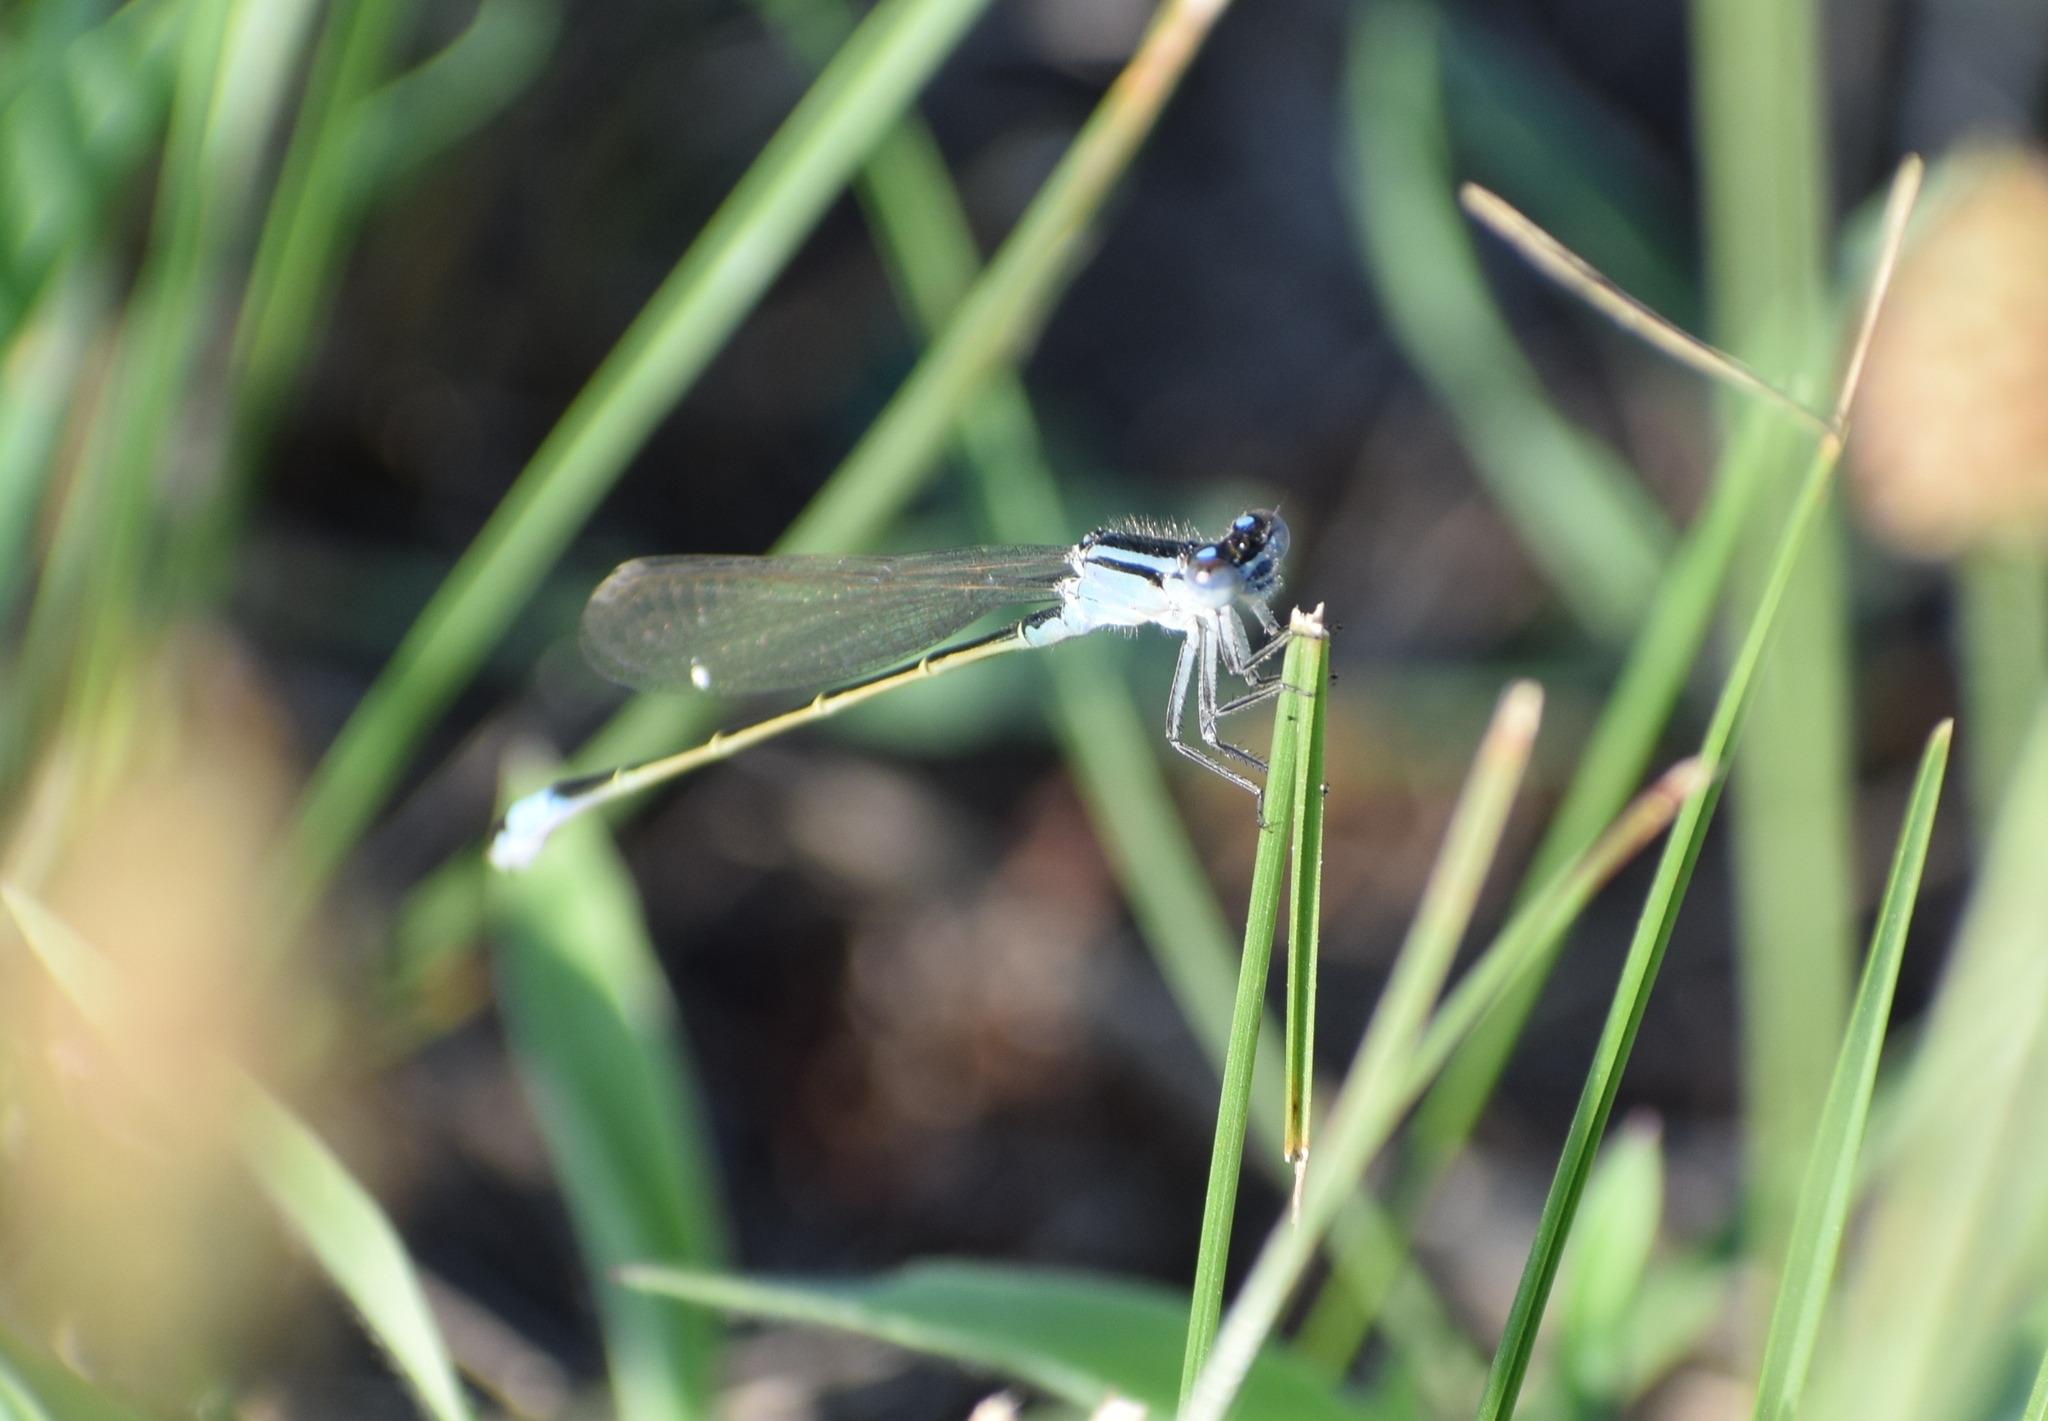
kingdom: Animalia
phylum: Arthropoda
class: Insecta
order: Odonata
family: Coenagrionidae
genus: Ischnura
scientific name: Ischnura elegans
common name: Blue-tailed damselfly
